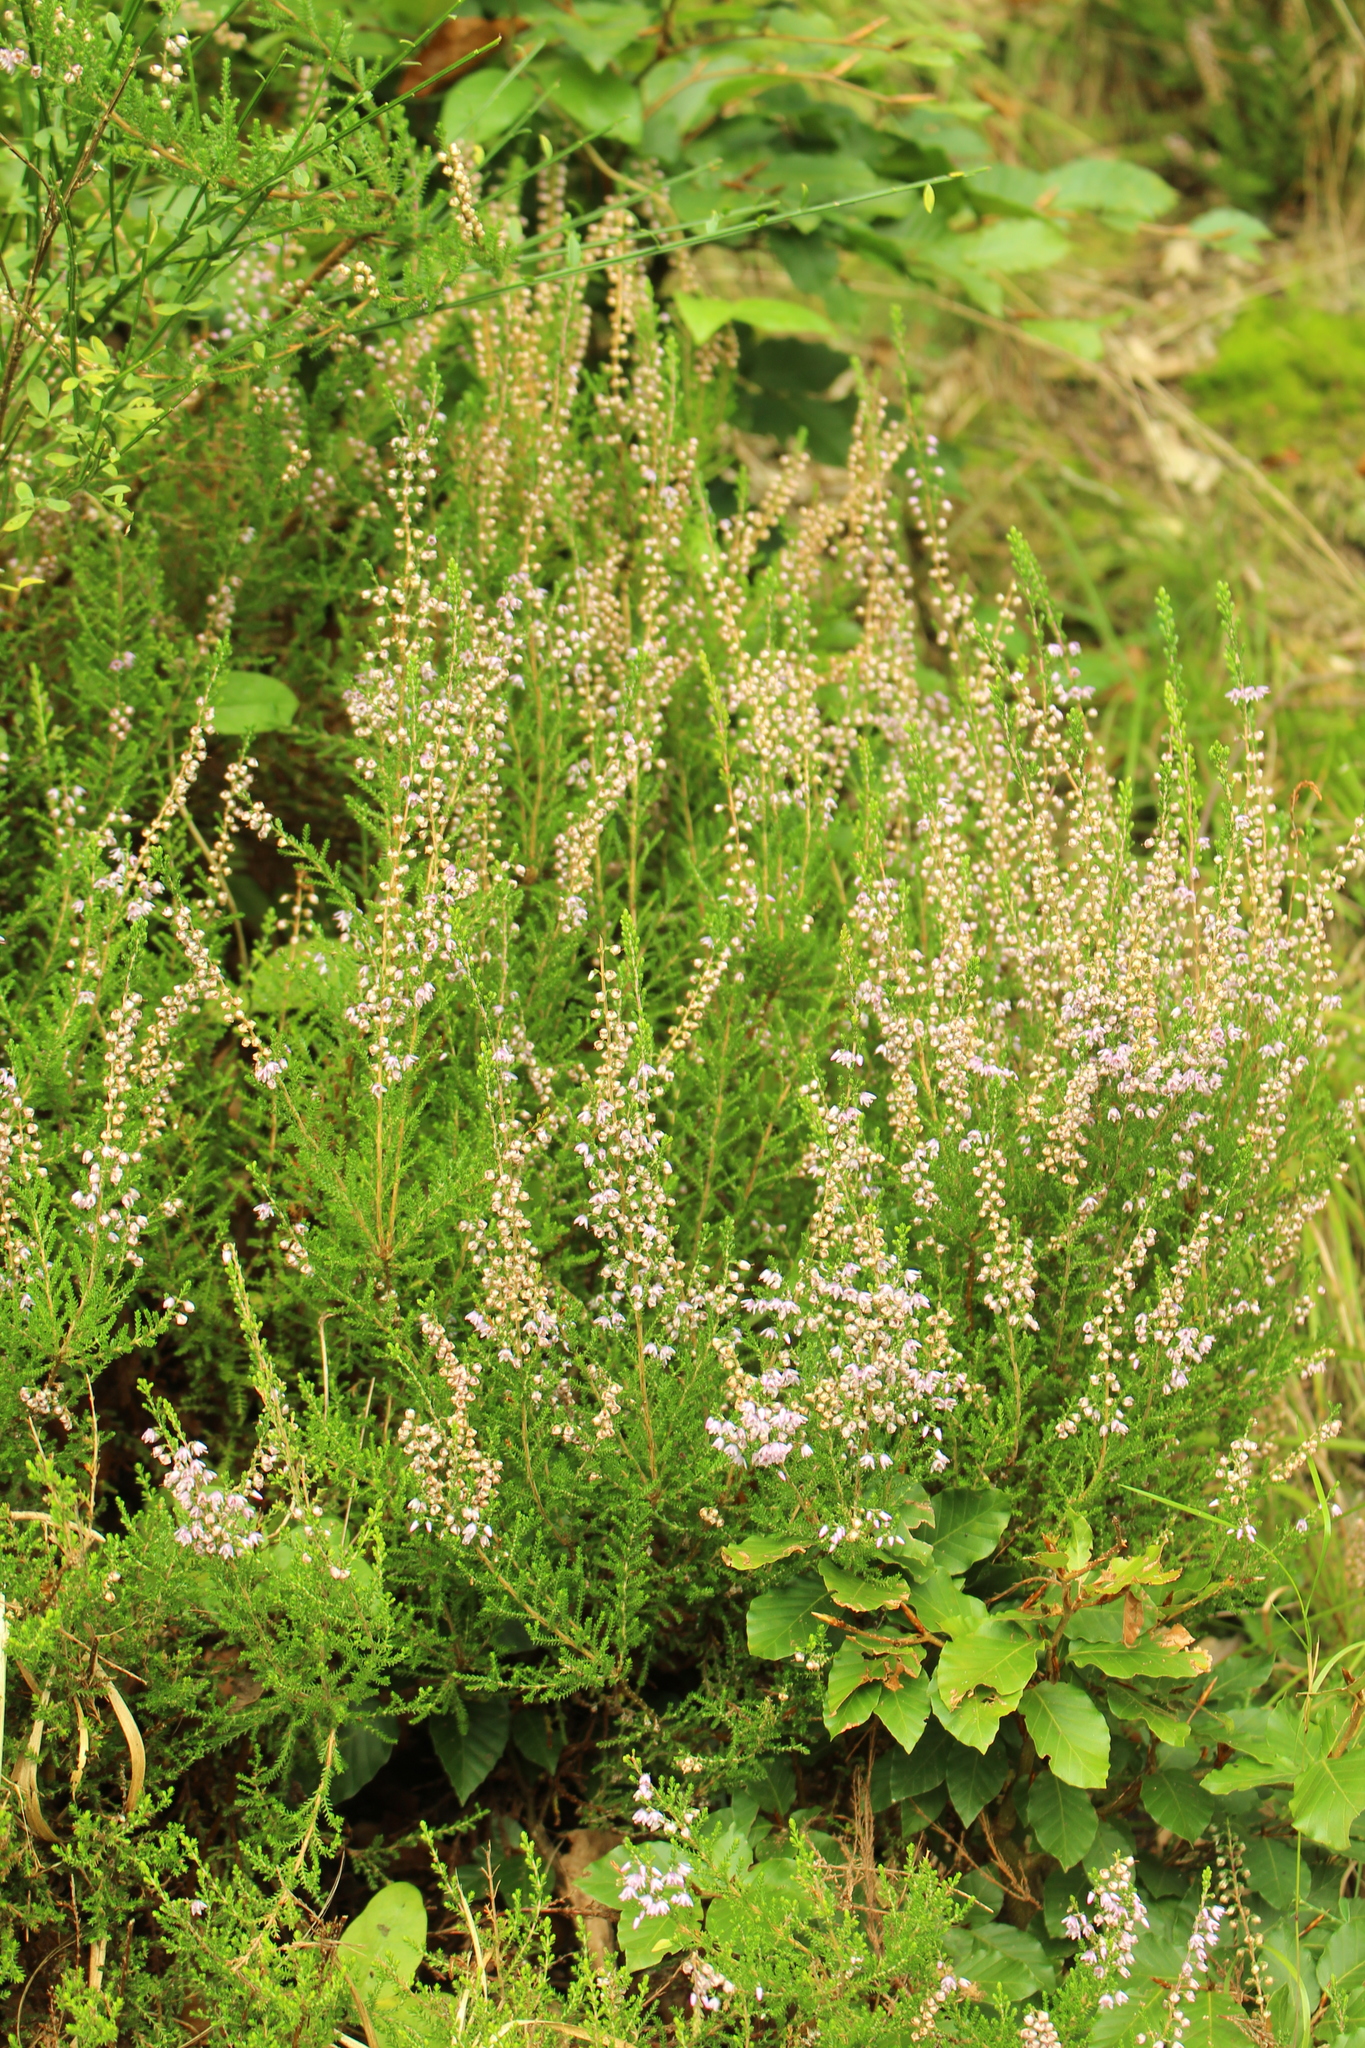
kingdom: Plantae
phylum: Tracheophyta
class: Magnoliopsida
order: Ericales
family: Ericaceae
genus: Calluna
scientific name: Calluna vulgaris
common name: Heather
